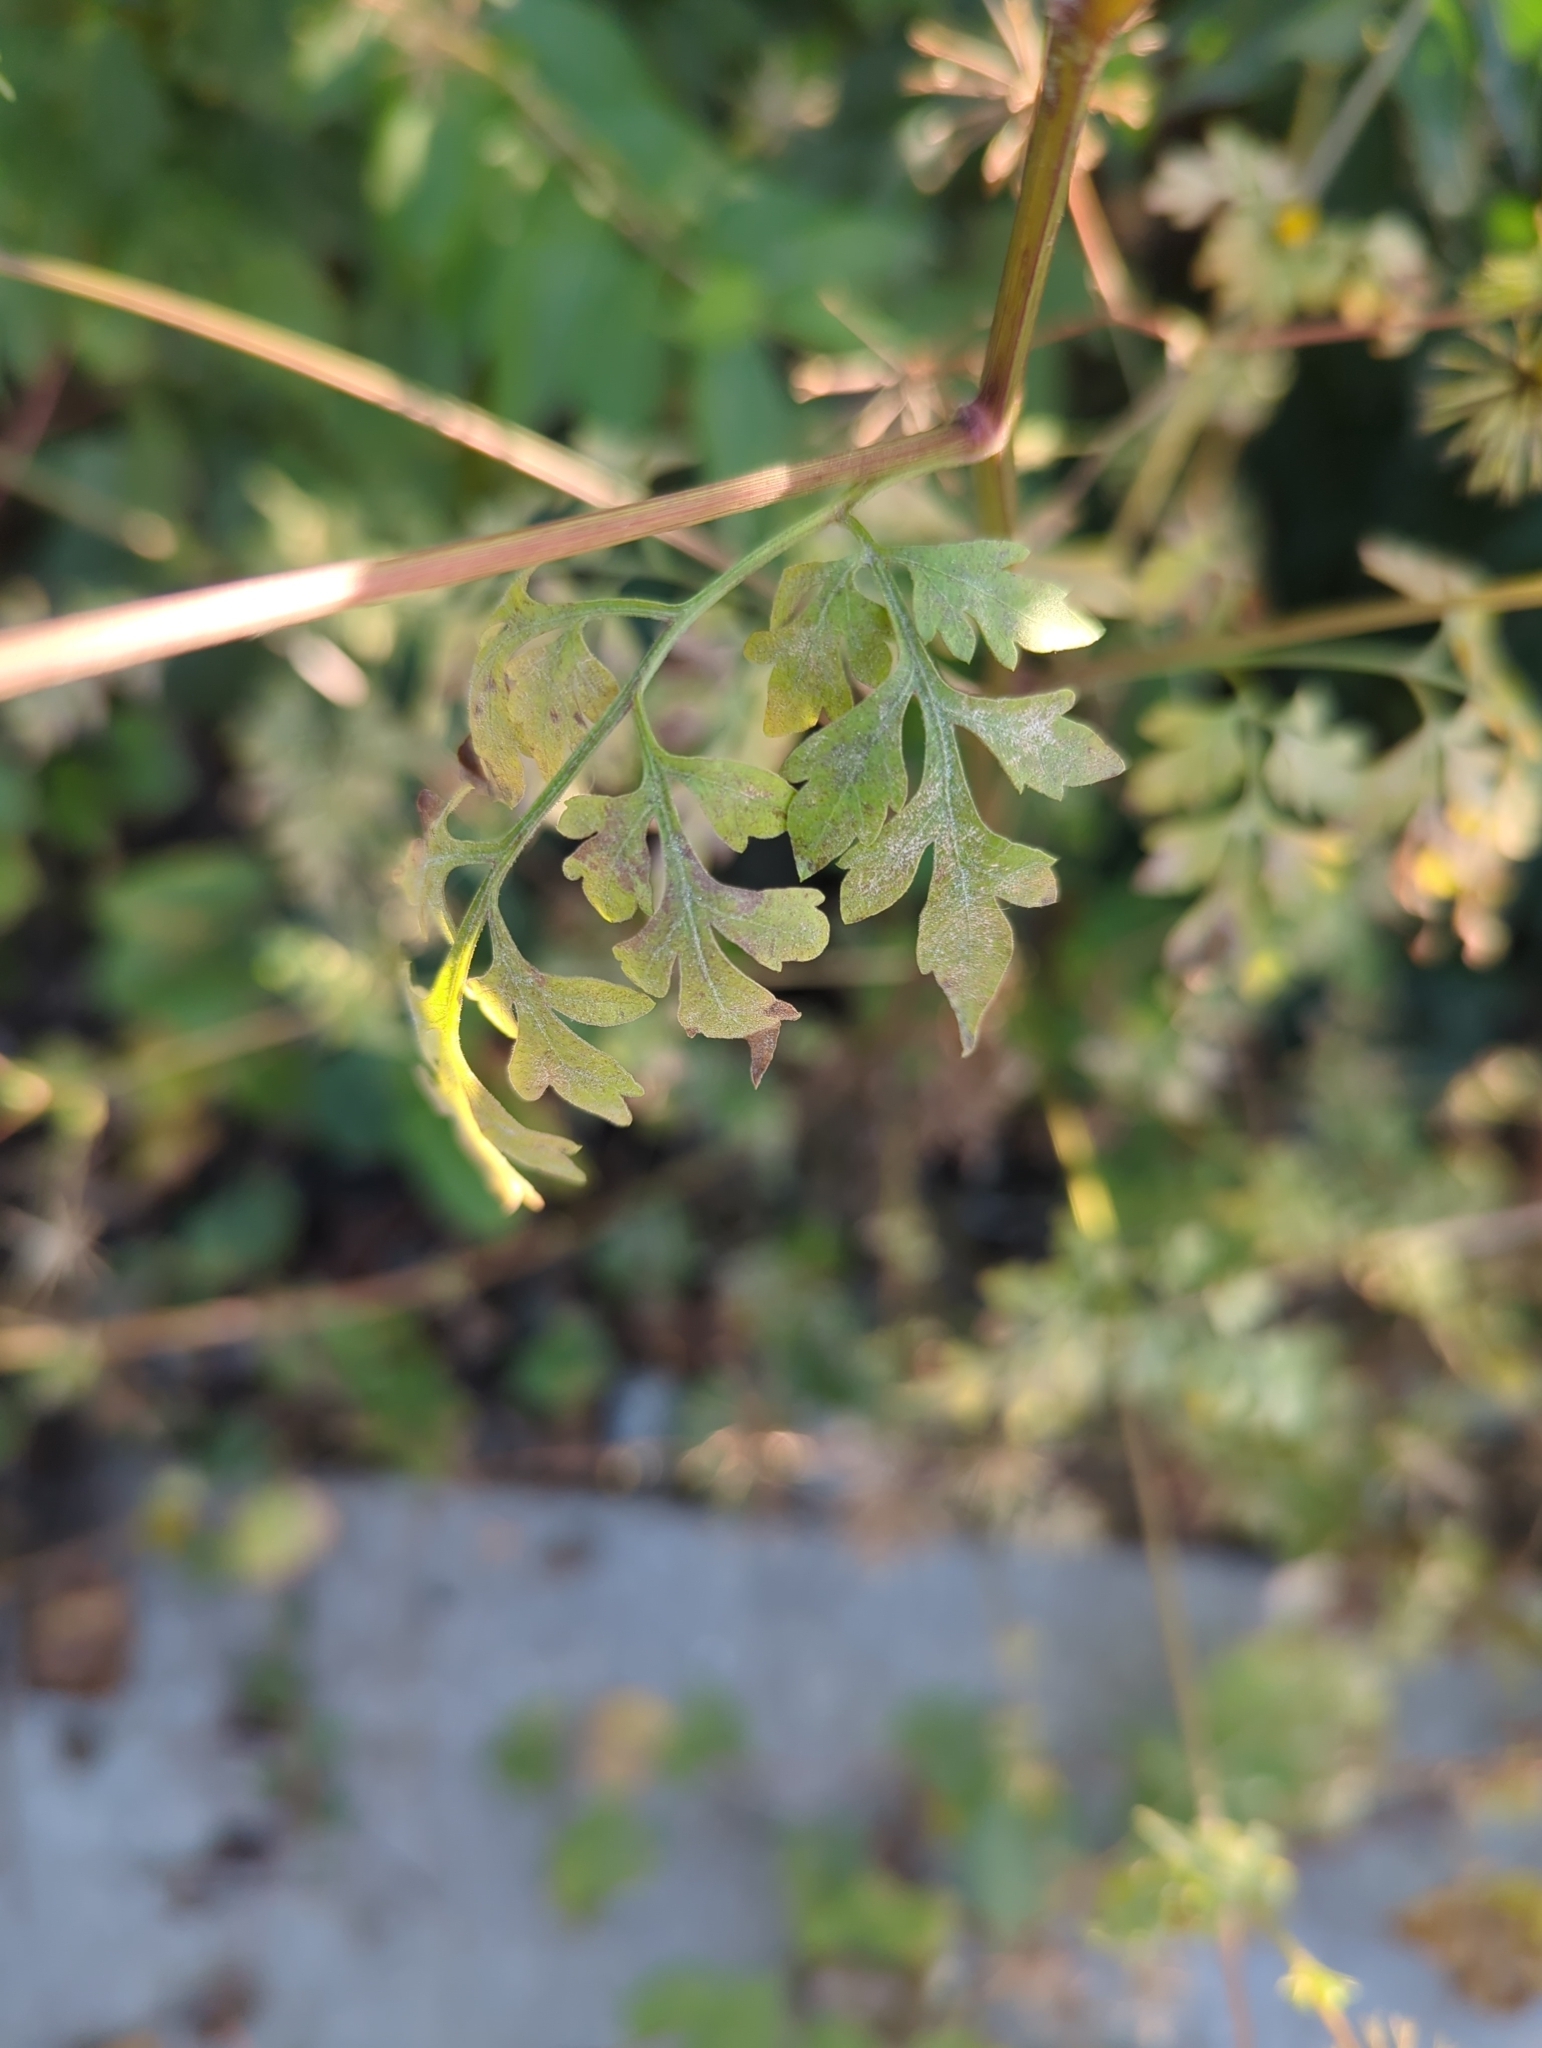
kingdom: Plantae
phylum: Tracheophyta
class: Magnoliopsida
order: Asterales
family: Asteraceae
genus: Bidens
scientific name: Bidens bipinnata
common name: Spanish-needles
